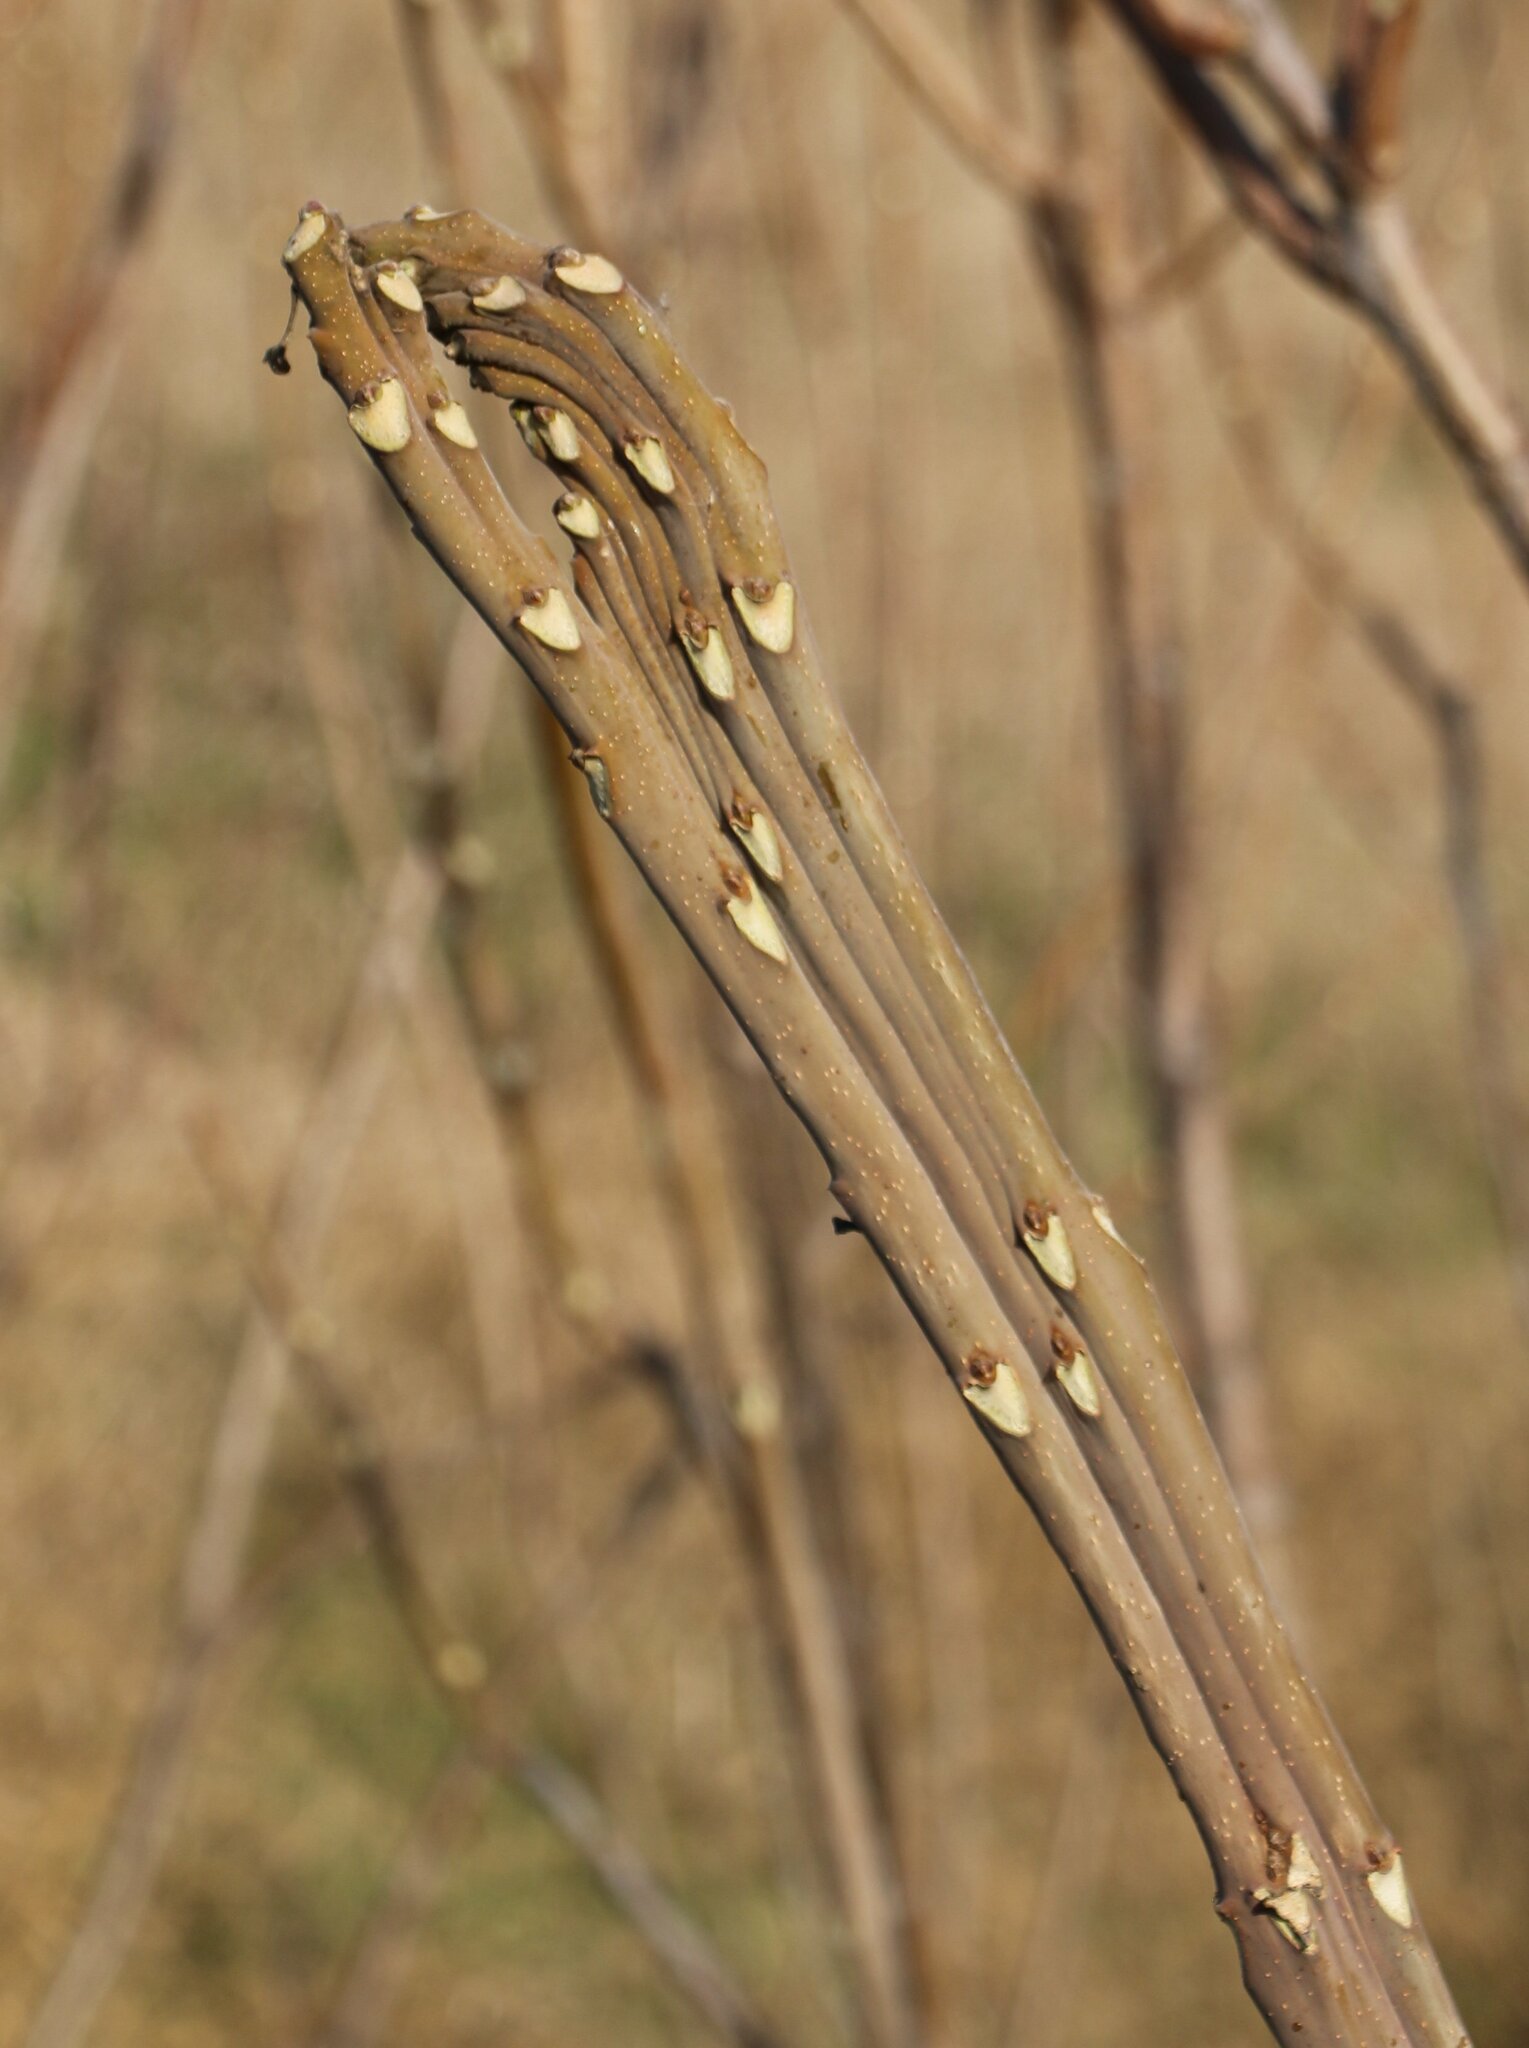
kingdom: Plantae
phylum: Tracheophyta
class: Magnoliopsida
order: Sapindales
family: Simaroubaceae
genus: Ailanthus
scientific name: Ailanthus altissima
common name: Tree-of-heaven
